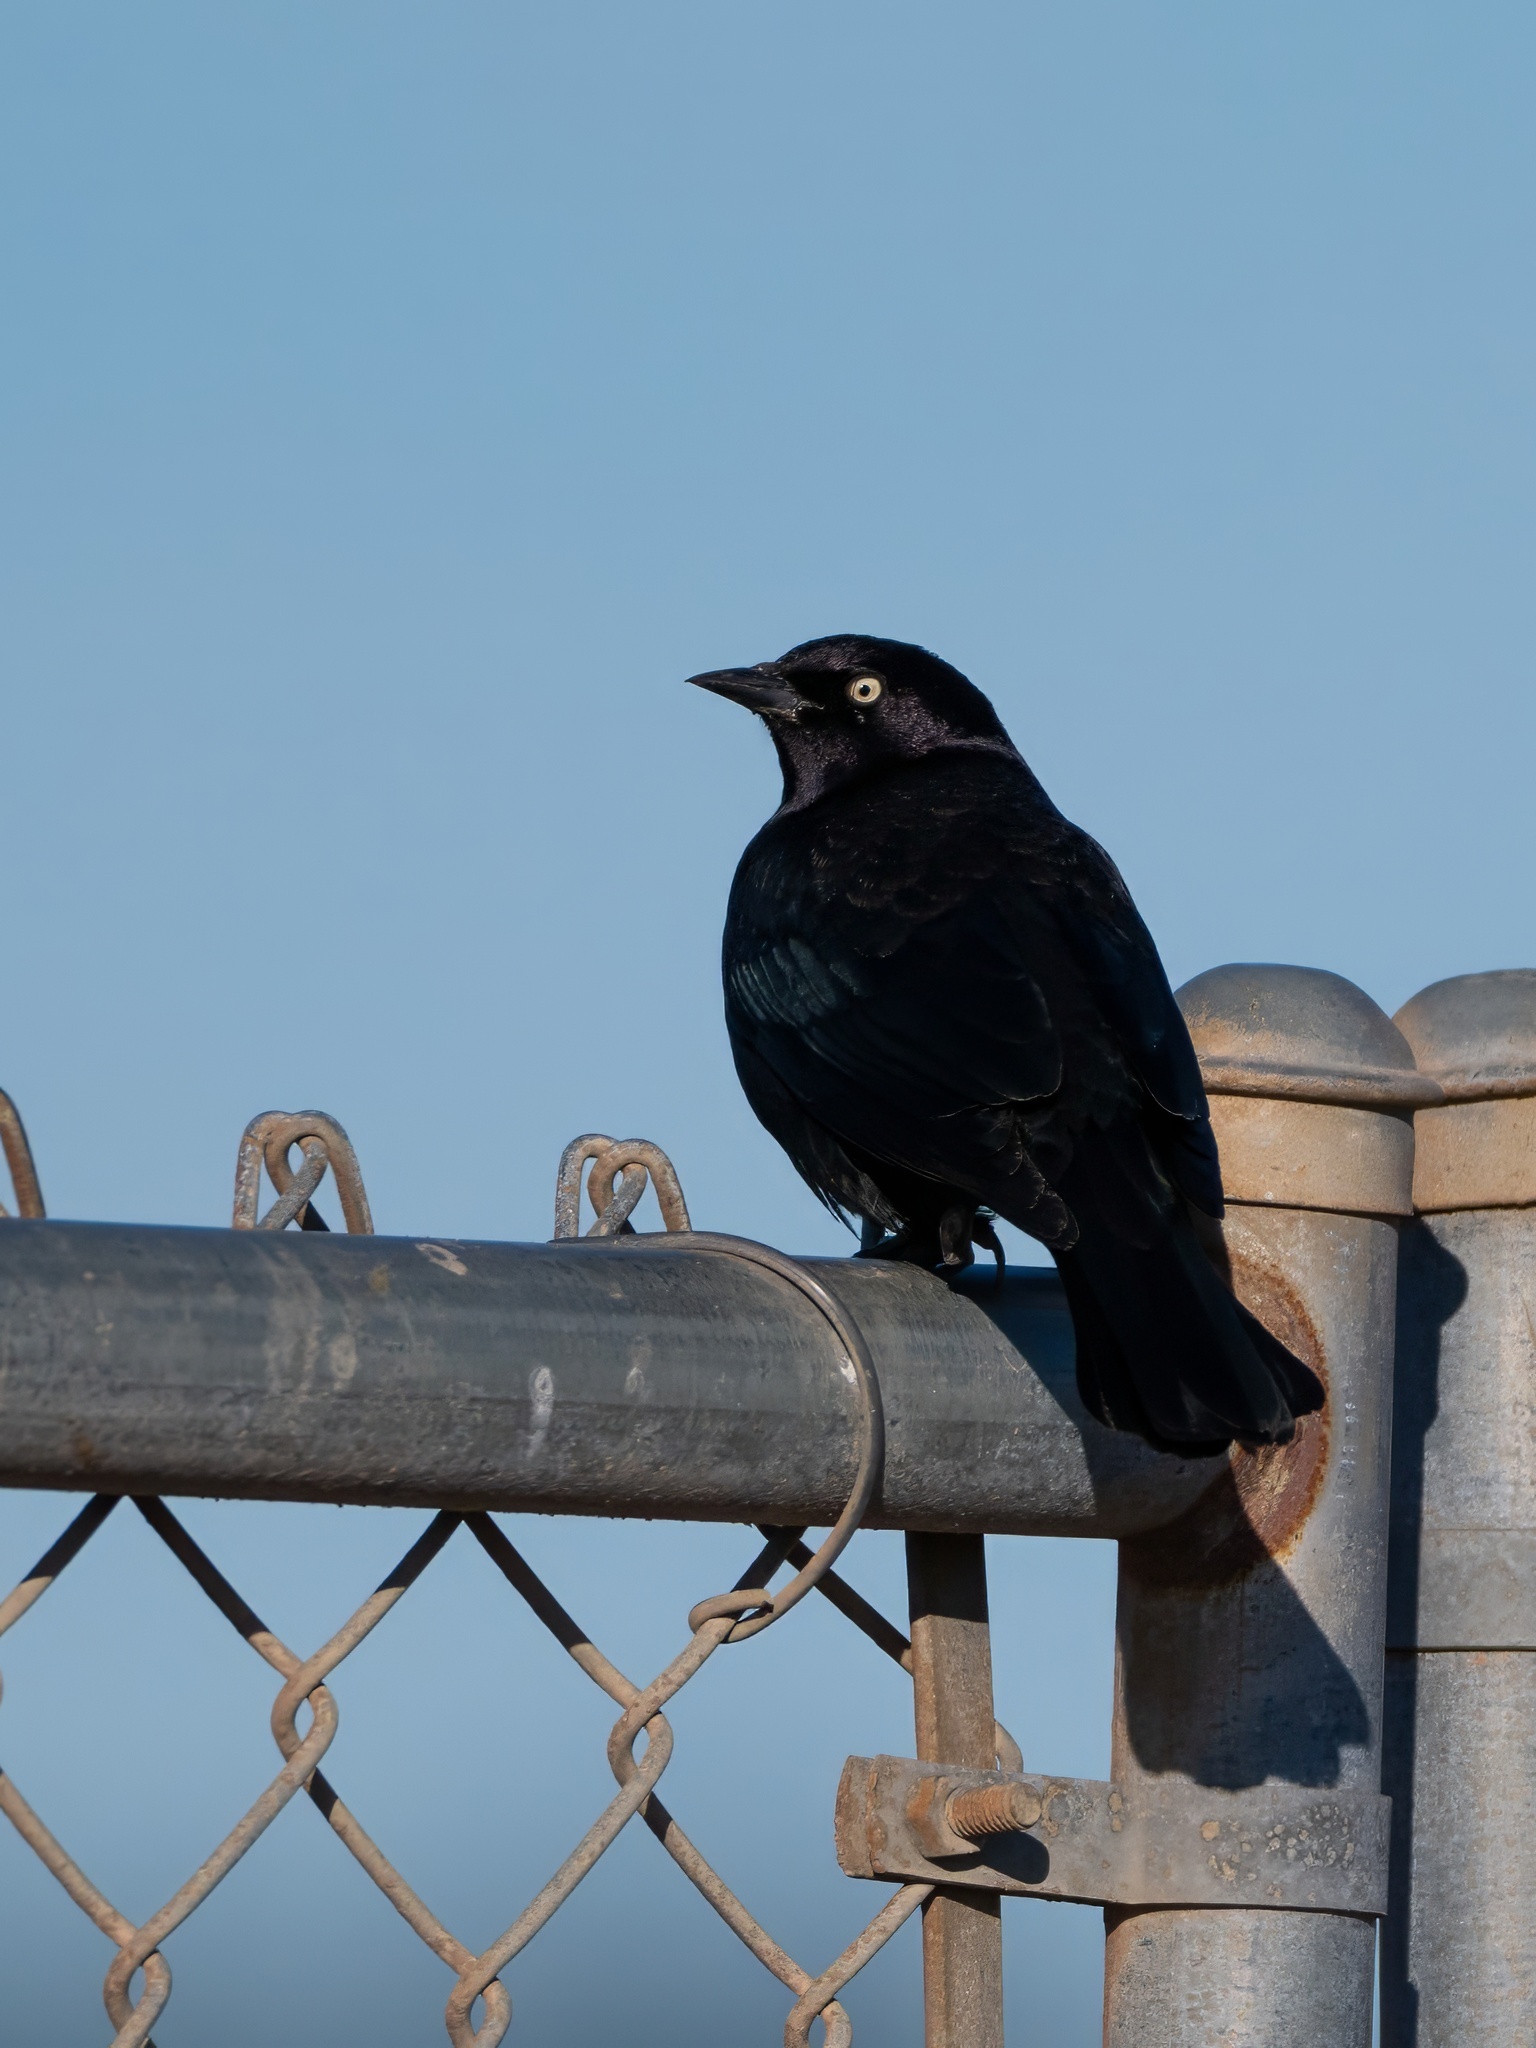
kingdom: Animalia
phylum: Chordata
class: Aves
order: Passeriformes
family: Icteridae
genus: Euphagus
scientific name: Euphagus cyanocephalus
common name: Brewer's blackbird
